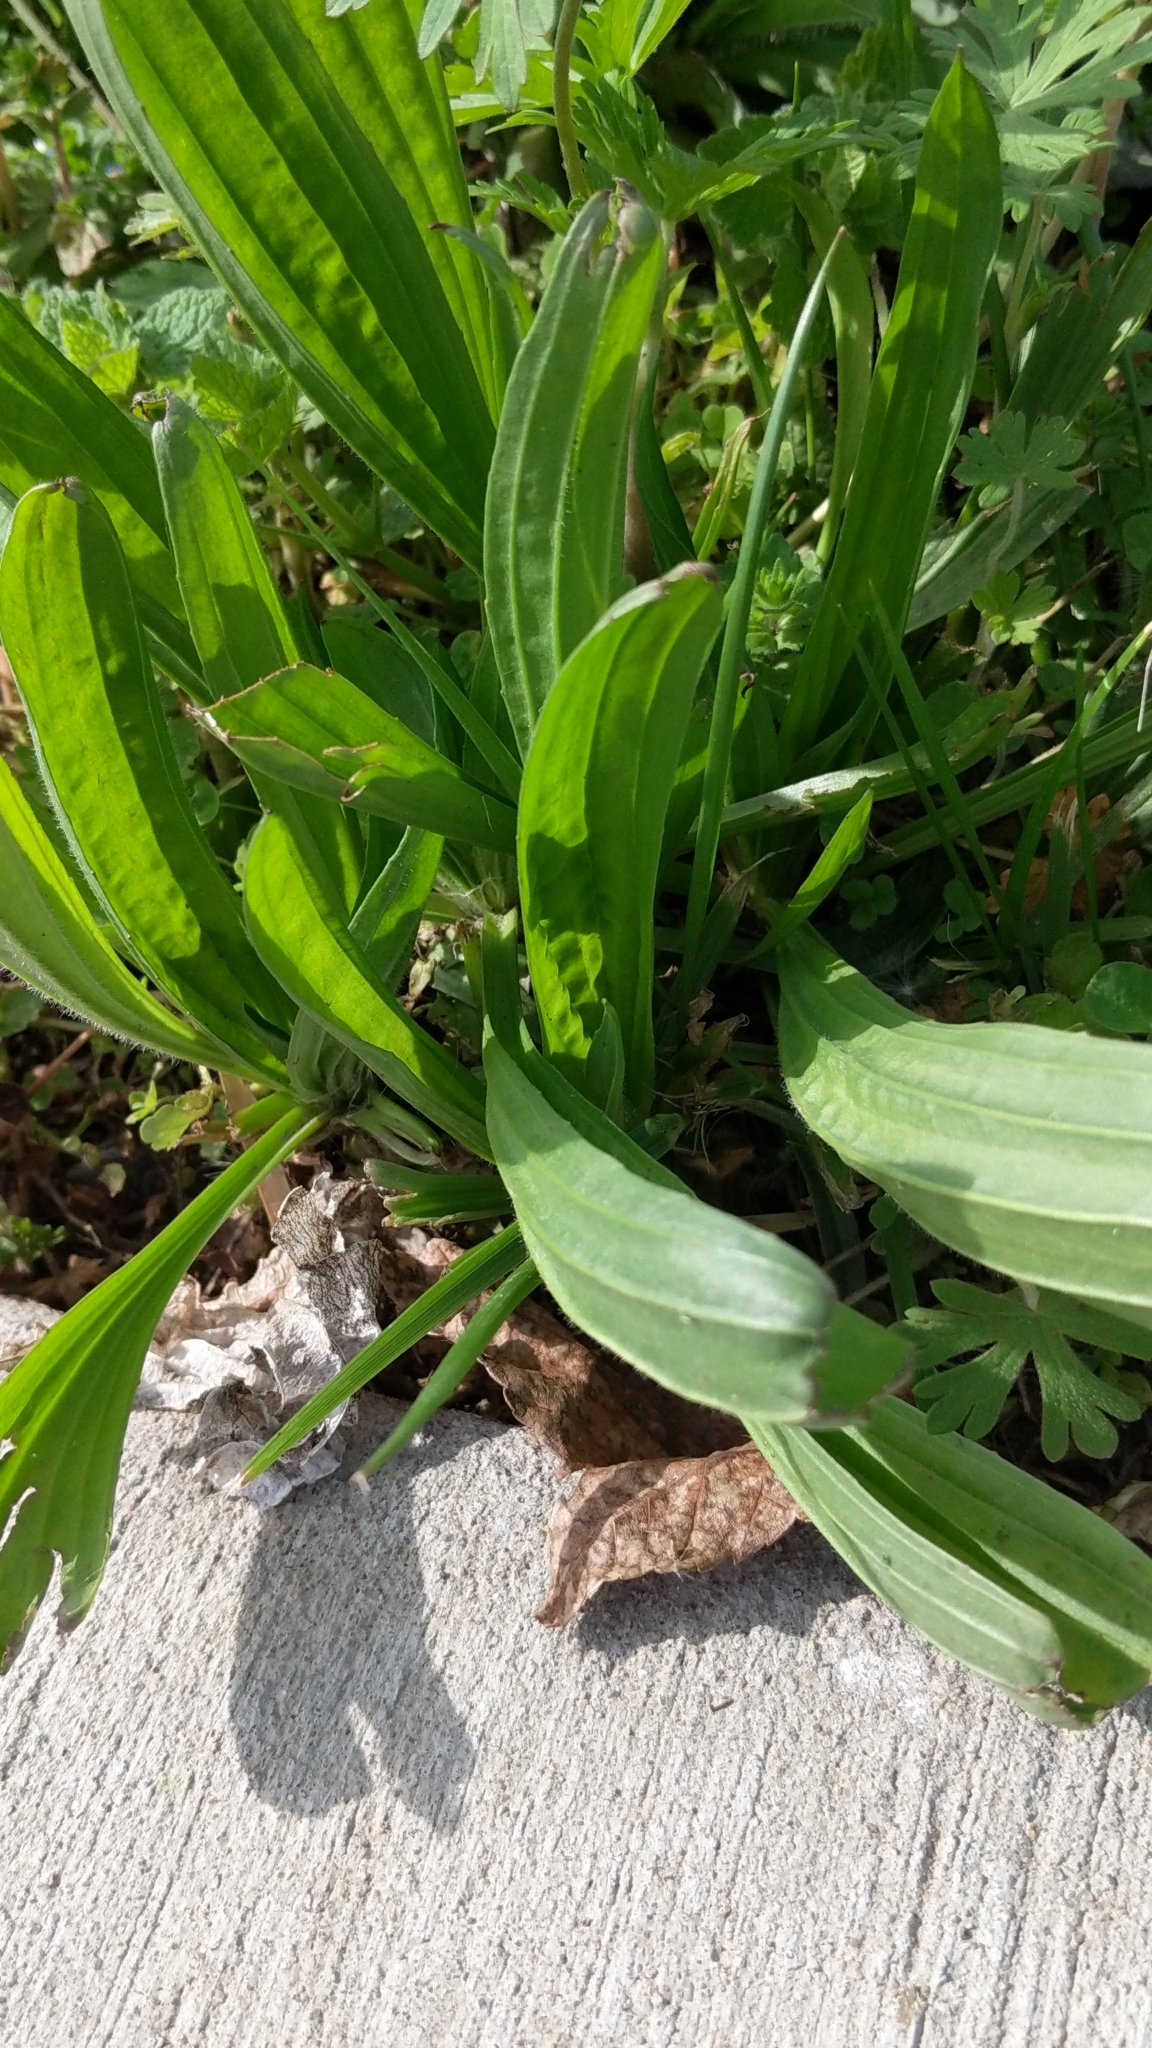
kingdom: Plantae
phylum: Tracheophyta
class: Magnoliopsida
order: Lamiales
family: Plantaginaceae
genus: Plantago
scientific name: Plantago lanceolata
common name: Ribwort plantain
